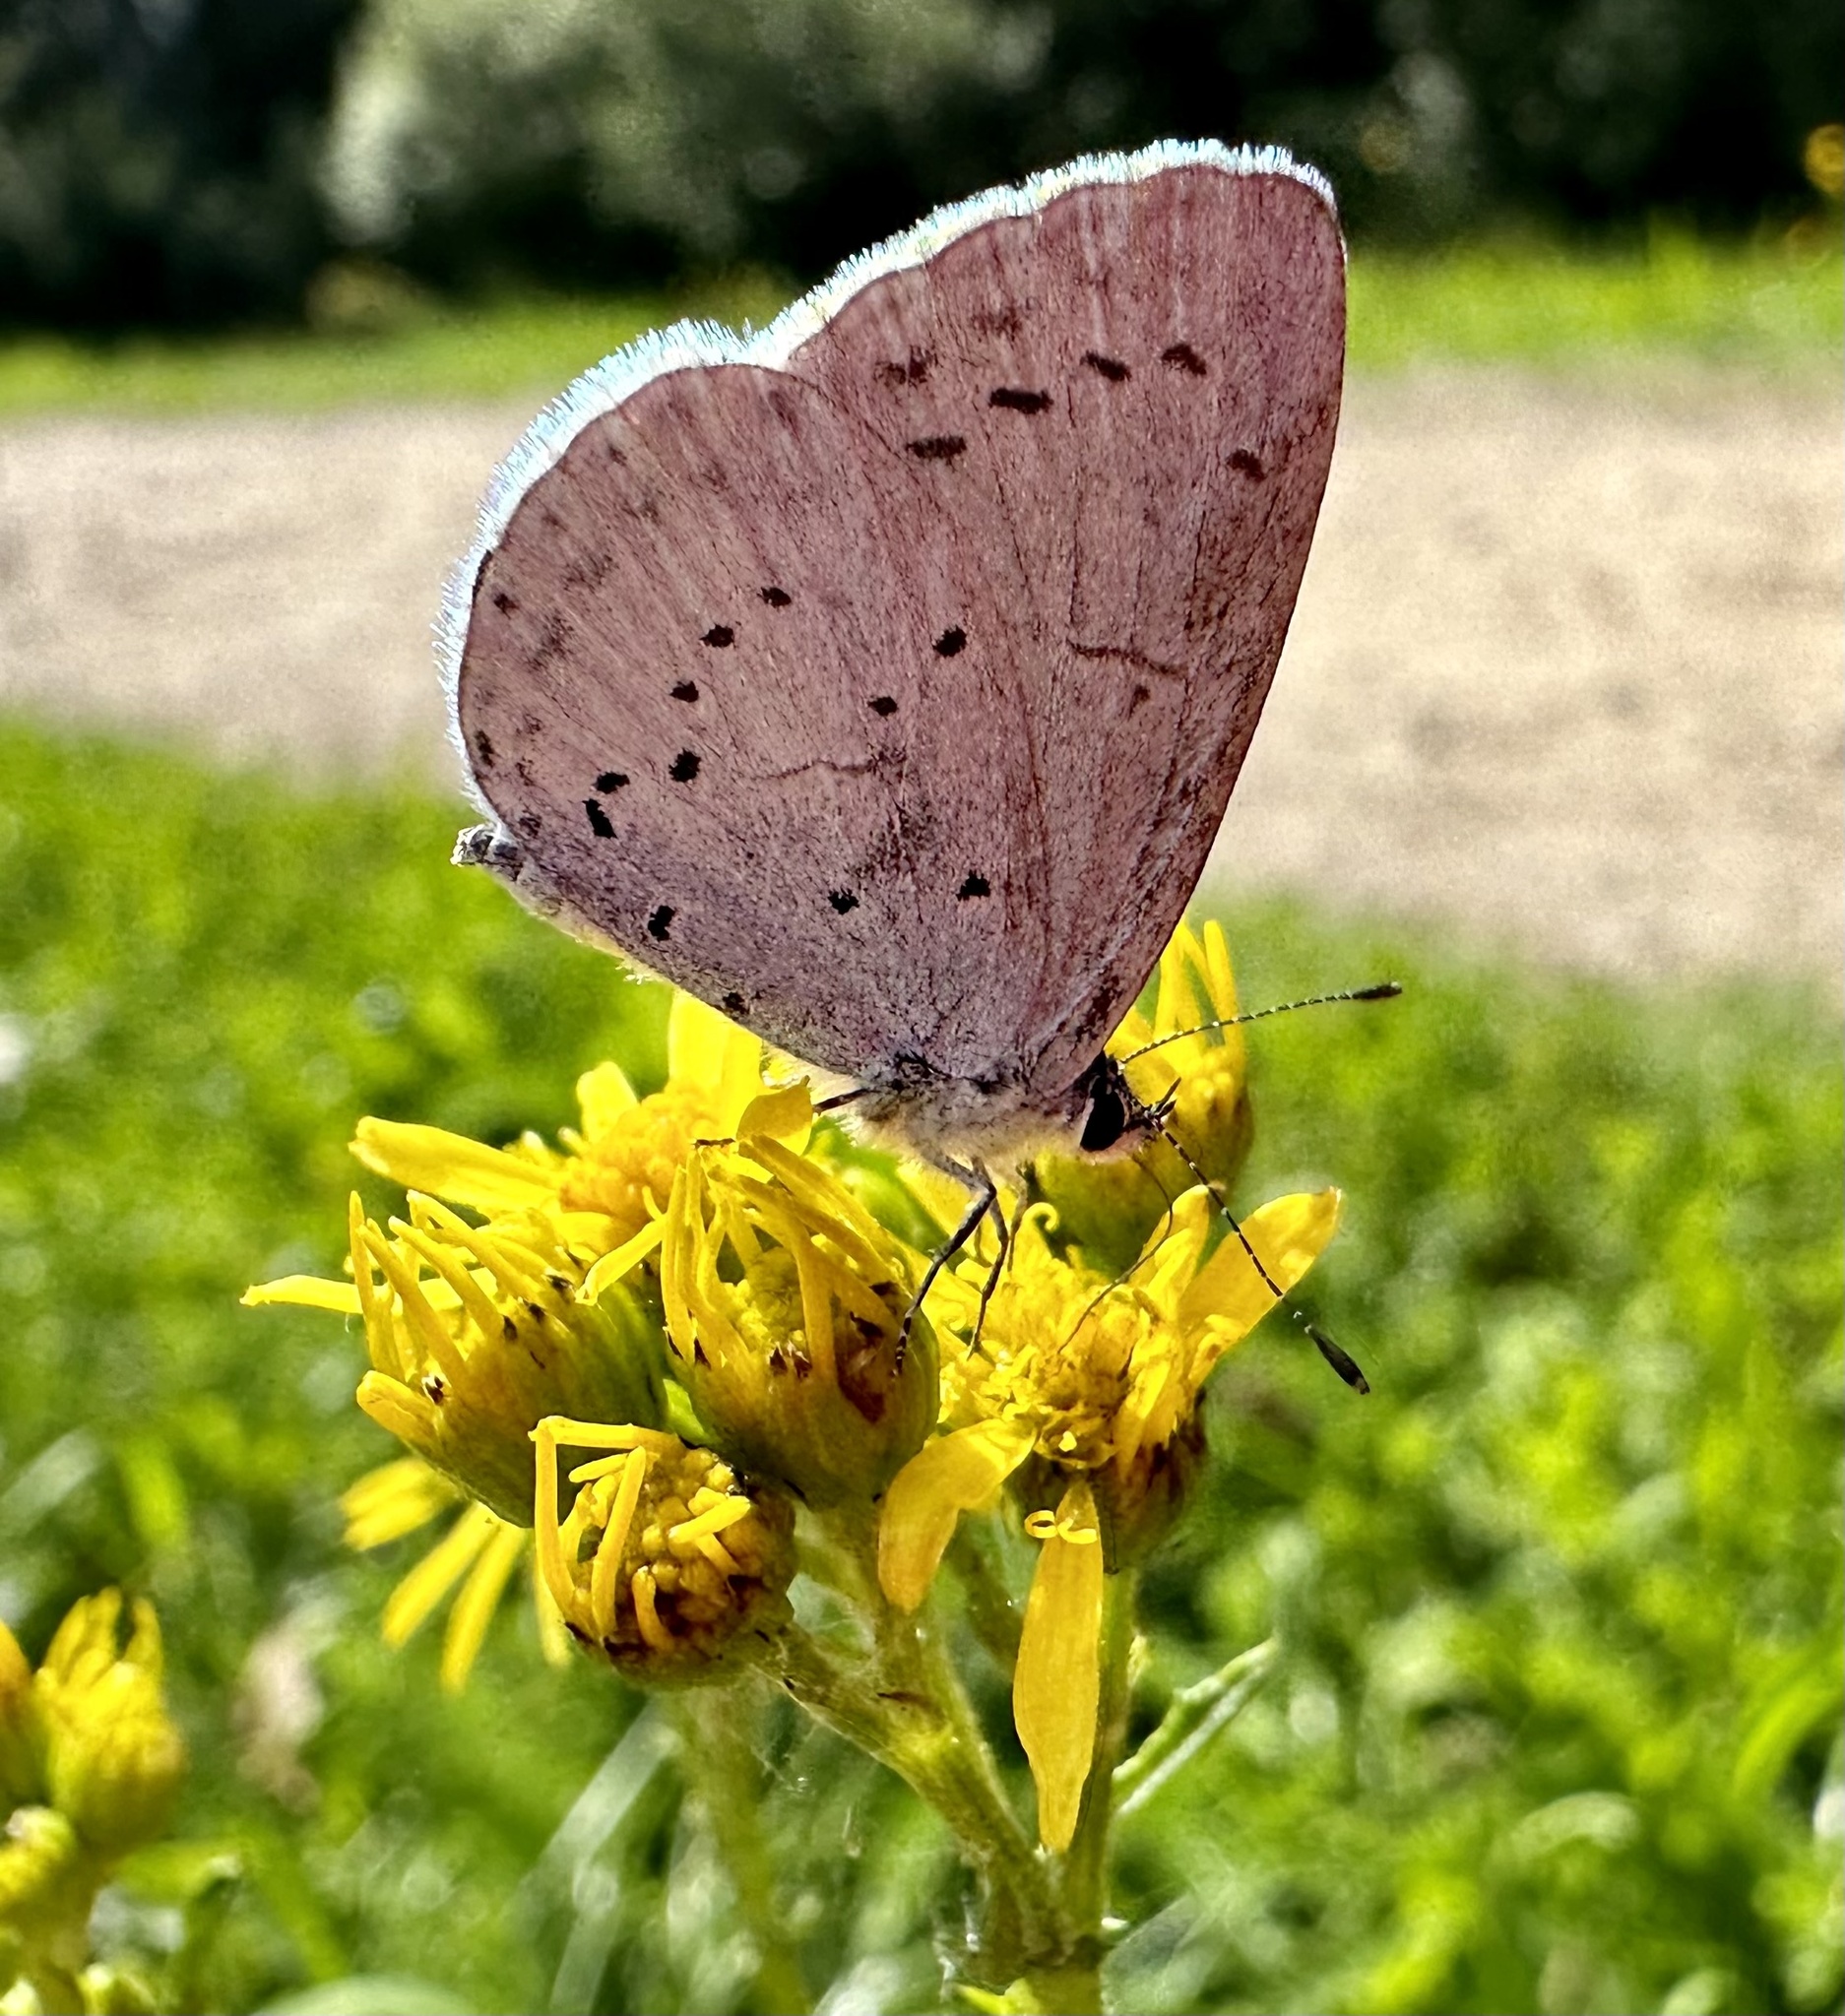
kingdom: Animalia
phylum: Arthropoda
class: Insecta
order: Lepidoptera
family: Lycaenidae
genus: Celastrina
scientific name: Celastrina argiolus
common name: Holly blue
